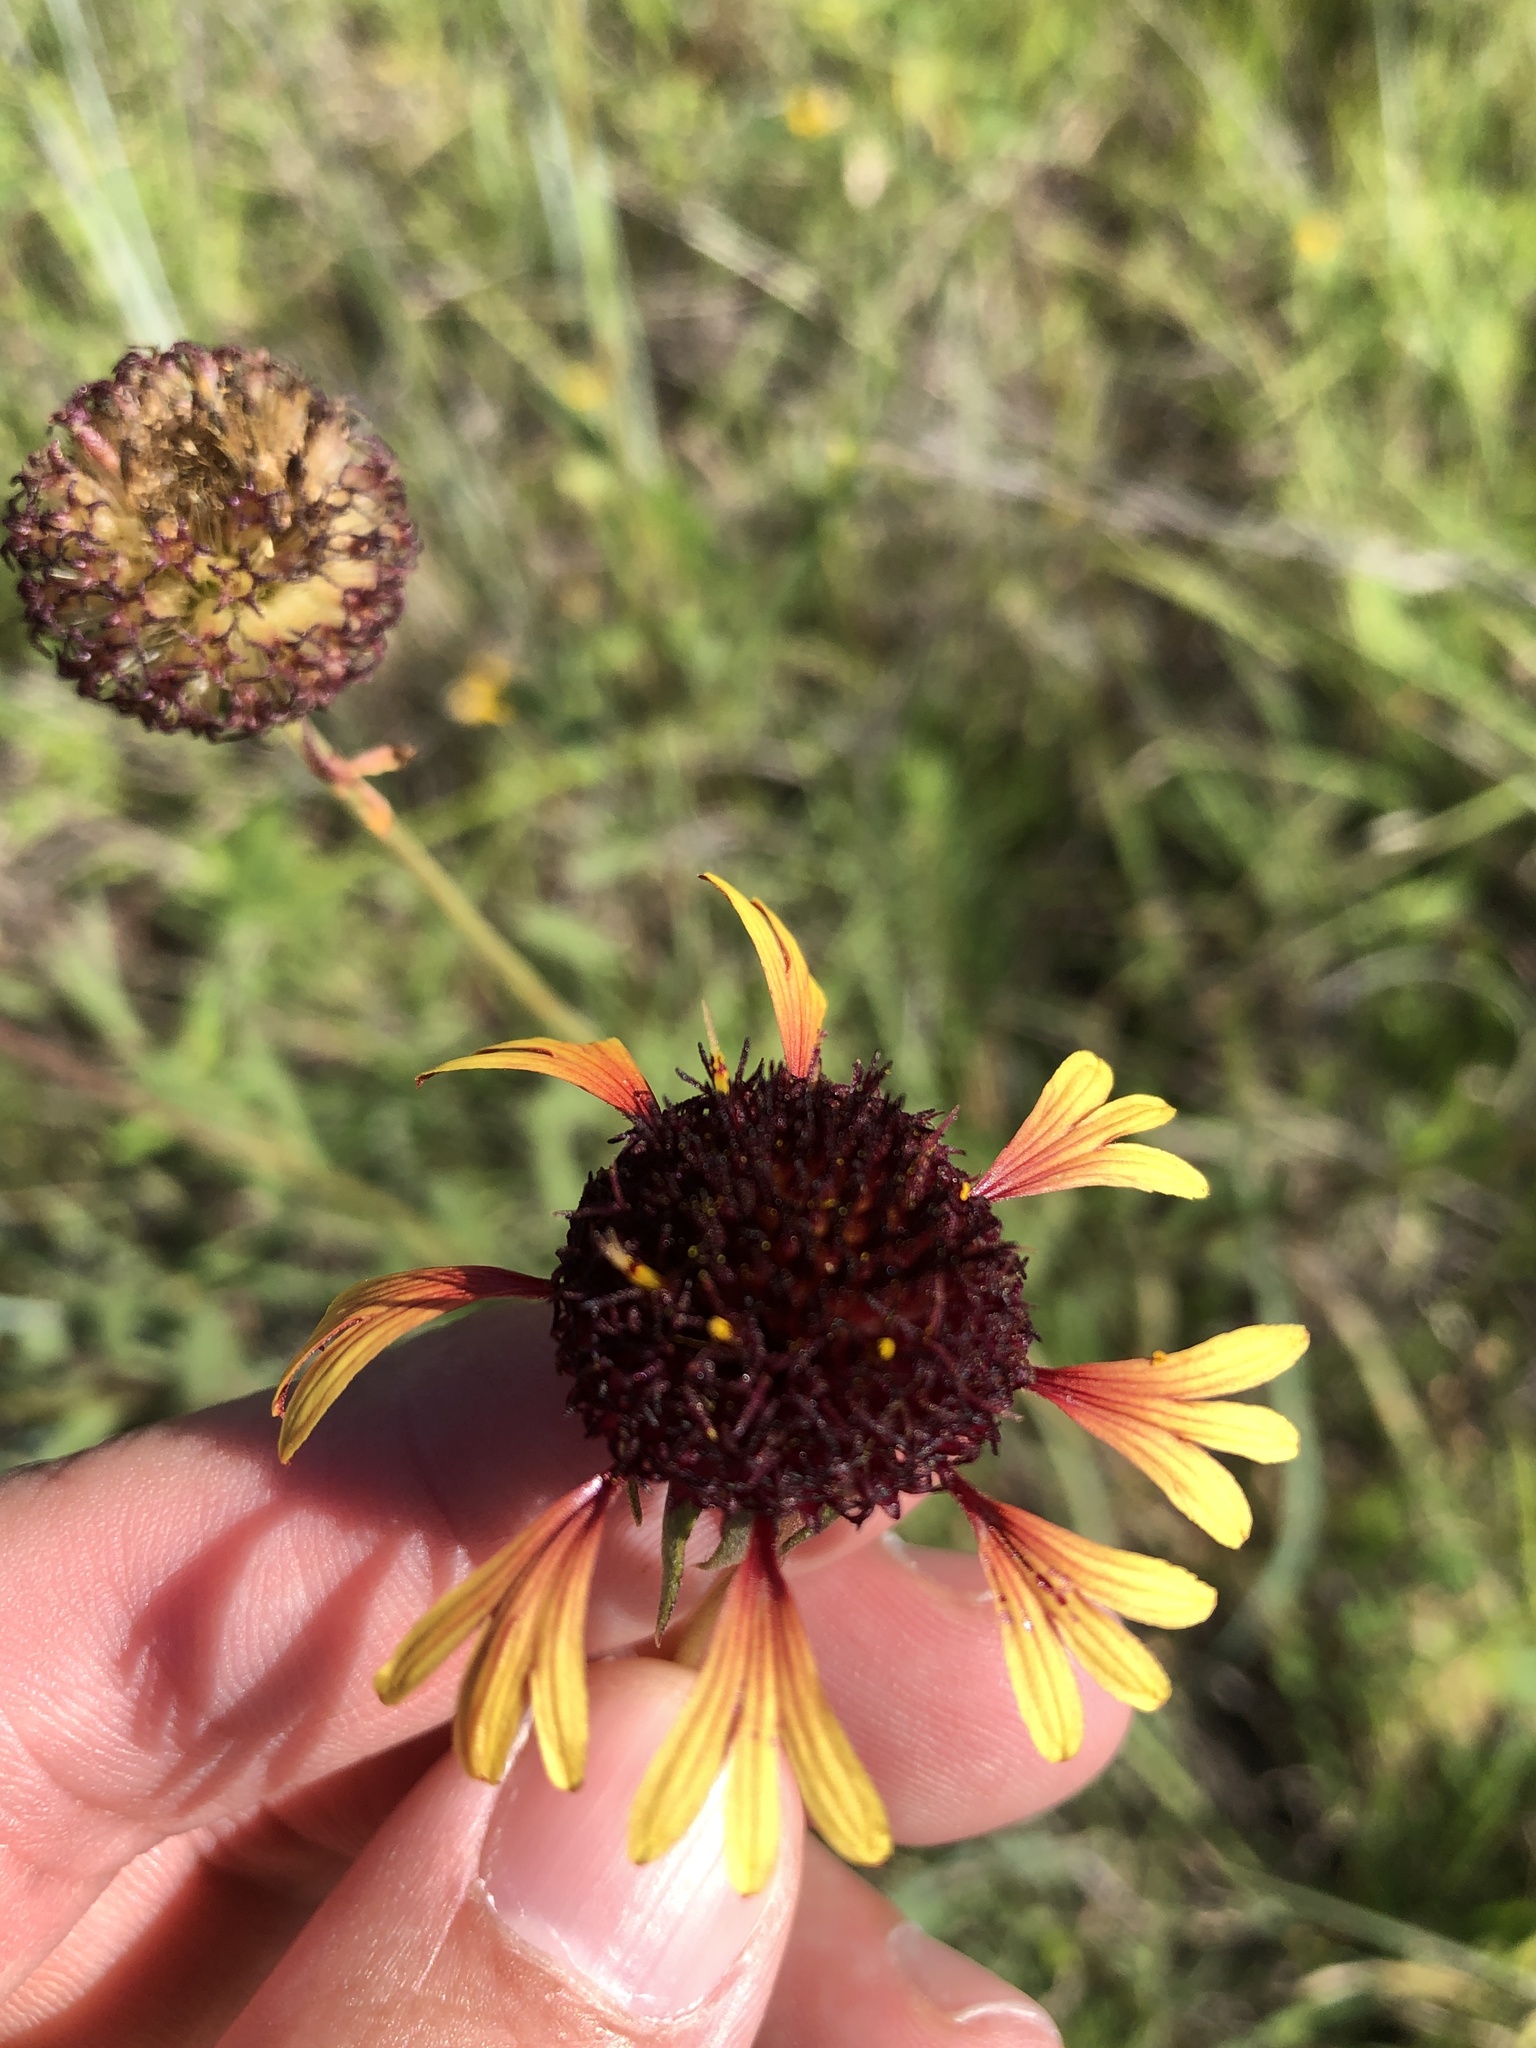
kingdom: Plantae
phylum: Tracheophyta
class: Magnoliopsida
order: Asterales
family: Asteraceae
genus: Gaillardia
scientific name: Gaillardia aestivalis
